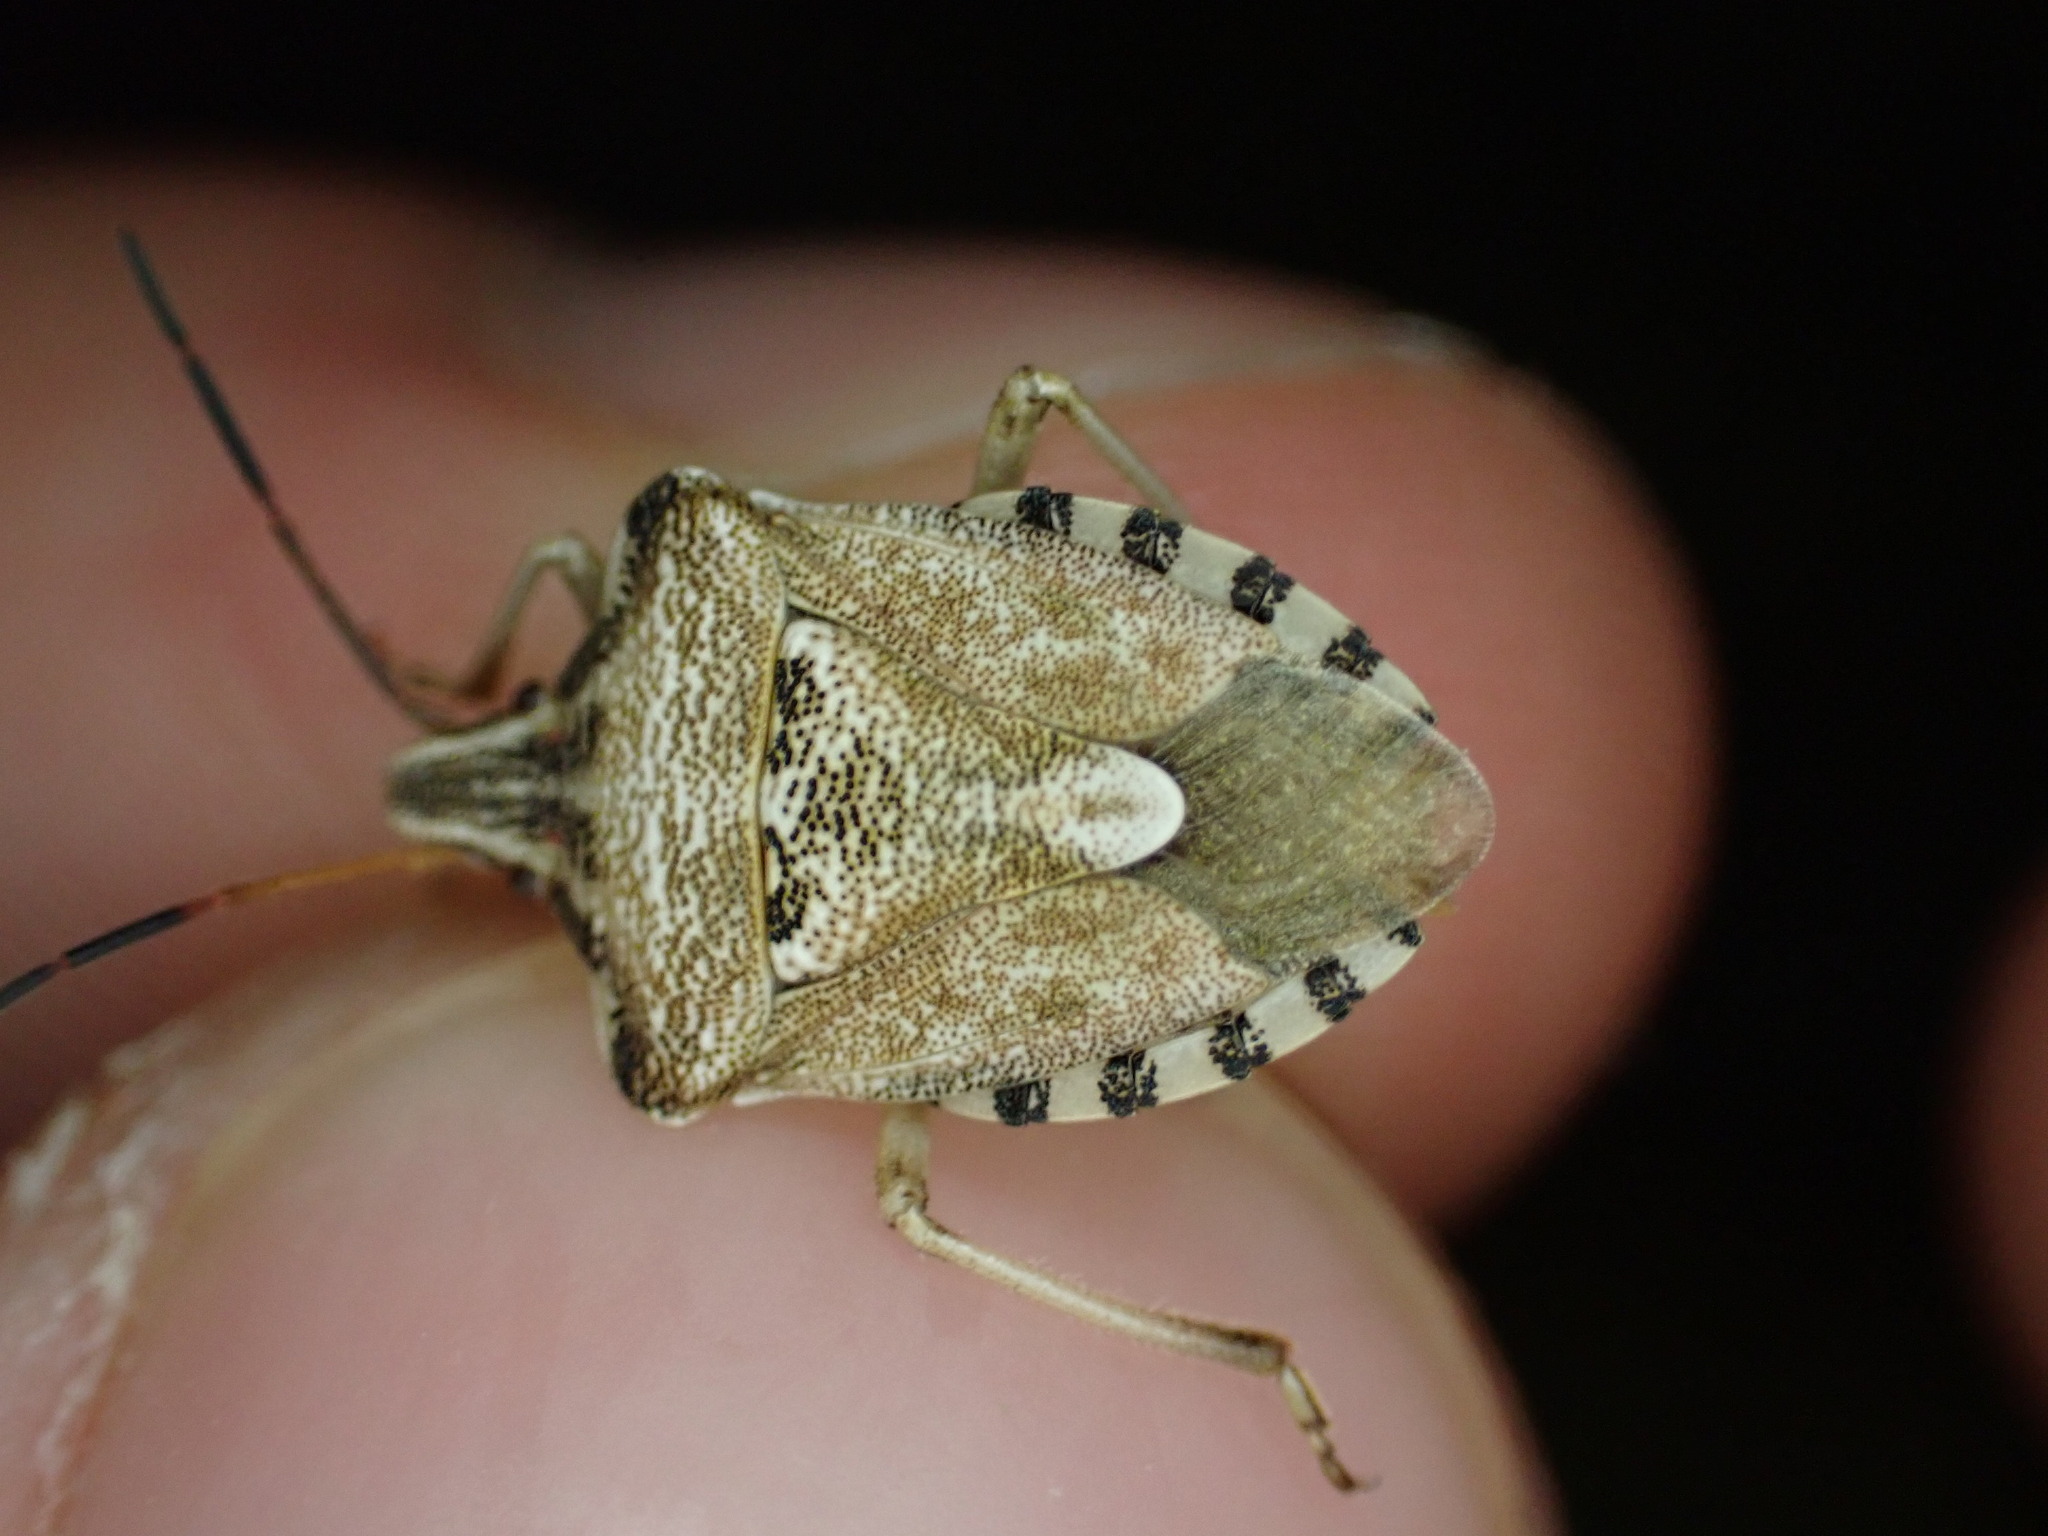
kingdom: Animalia
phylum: Arthropoda
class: Insecta
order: Hemiptera
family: Miridae
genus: Orthops
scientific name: Orthops kalmii
